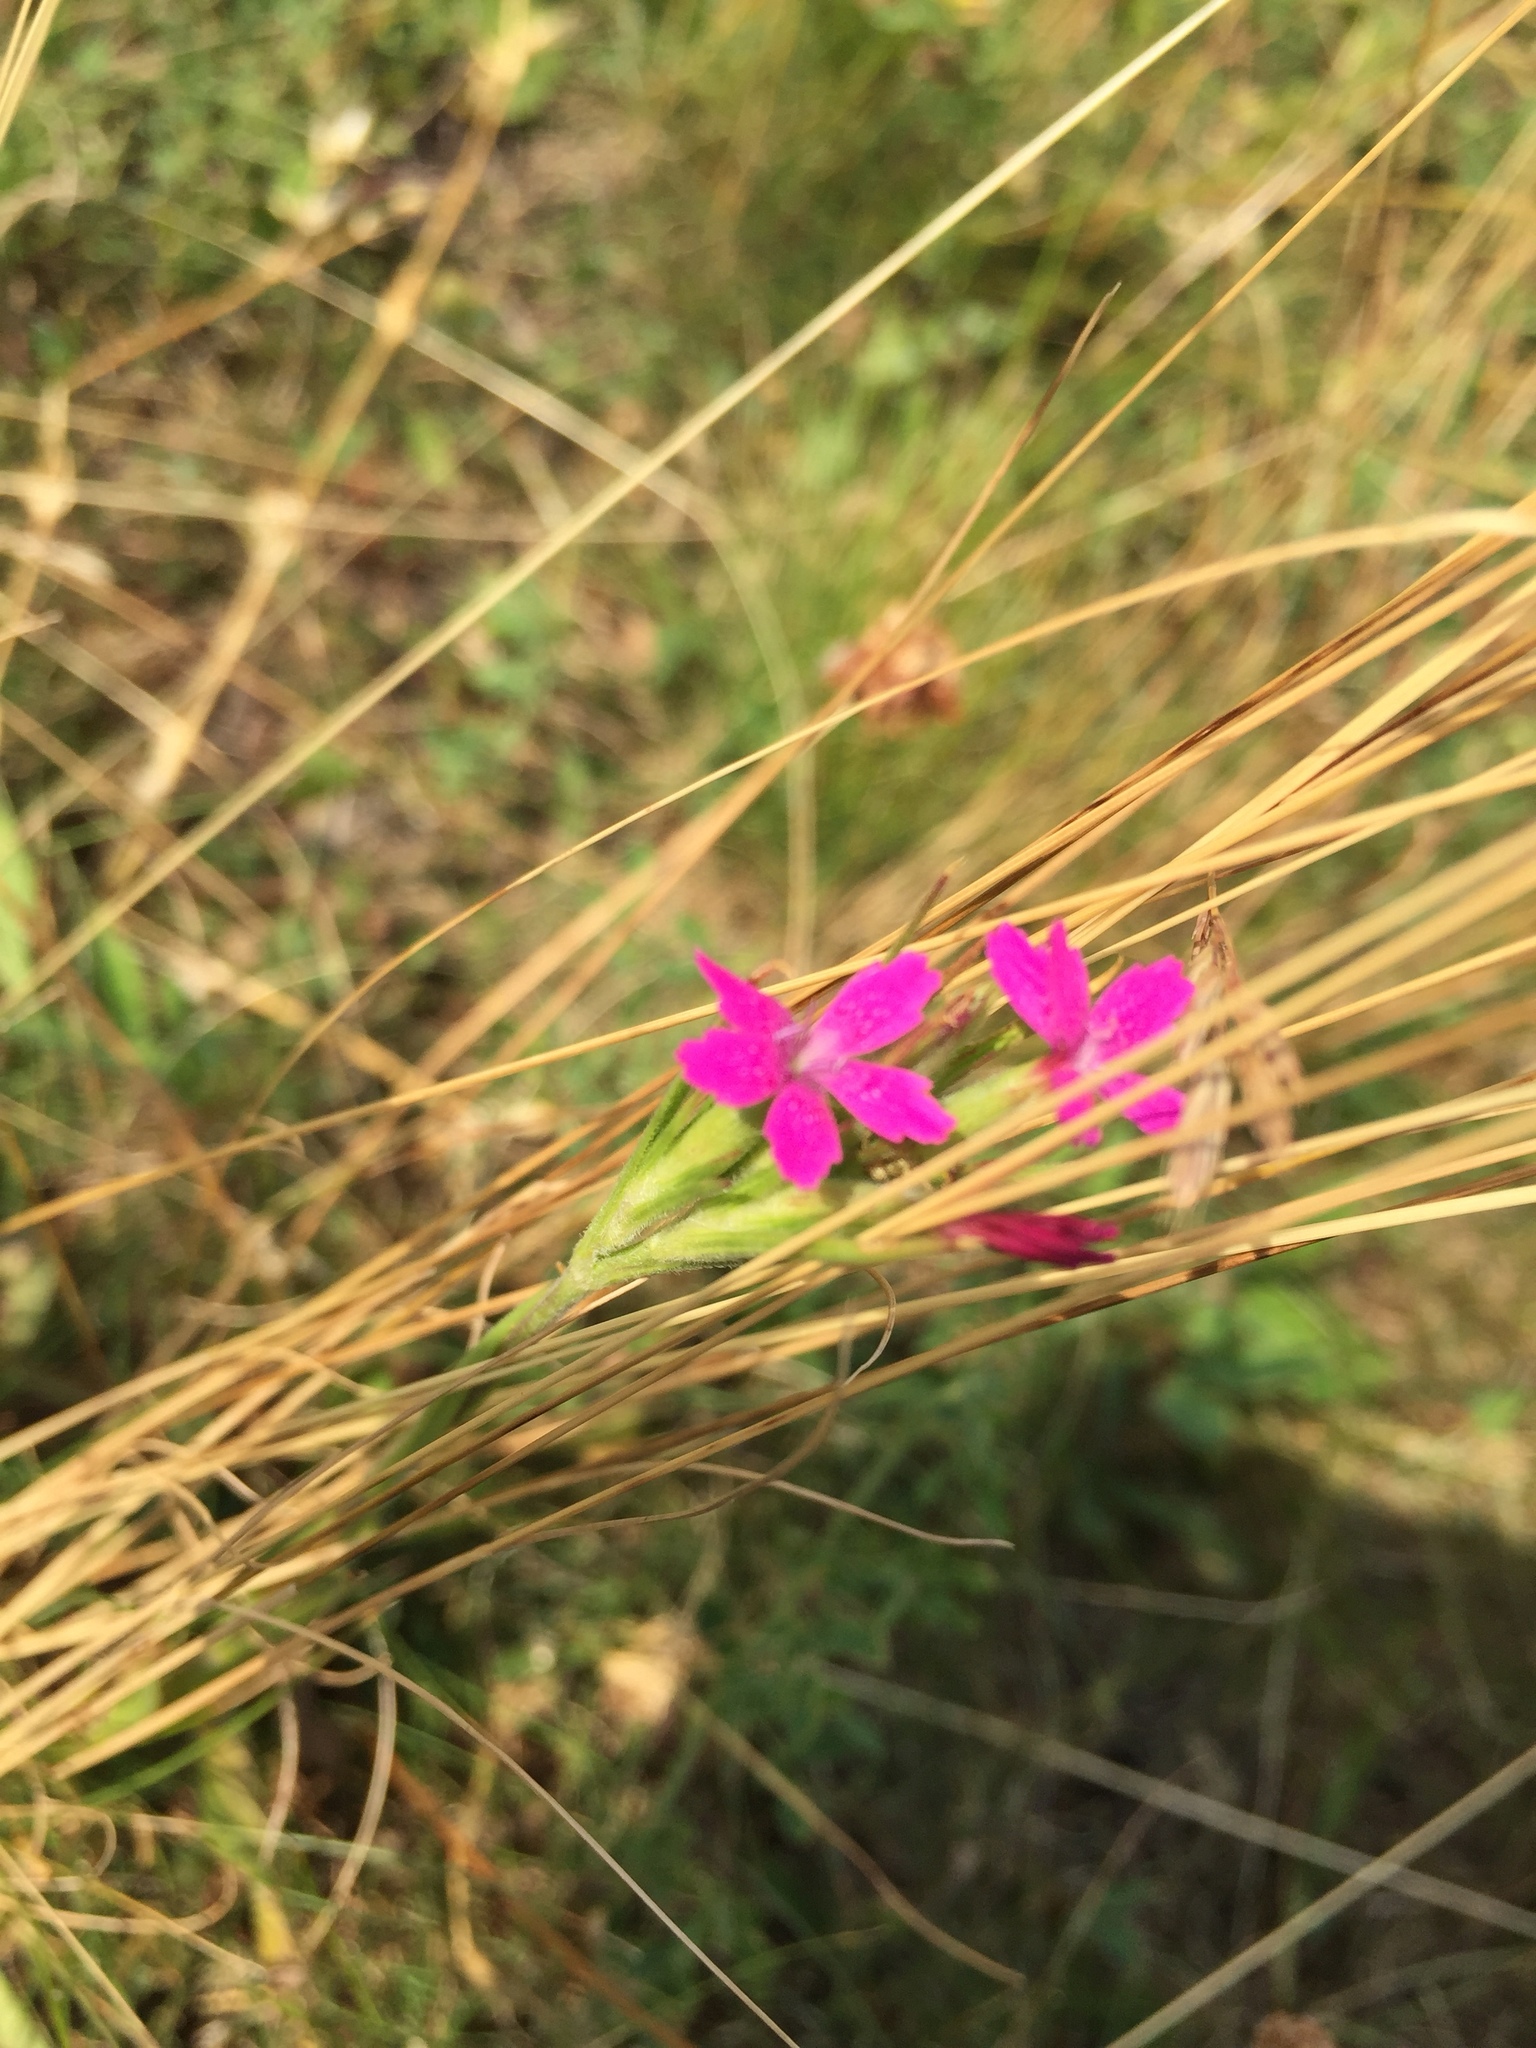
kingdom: Plantae
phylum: Tracheophyta
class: Magnoliopsida
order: Caryophyllales
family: Caryophyllaceae
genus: Dianthus
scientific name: Dianthus armeria
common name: Deptford pink
